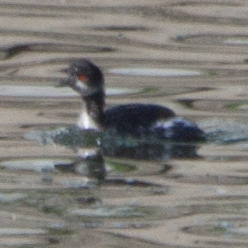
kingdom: Animalia
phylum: Chordata
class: Aves
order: Podicipediformes
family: Podicipedidae
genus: Podiceps
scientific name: Podiceps nigricollis
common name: Black-necked grebe
